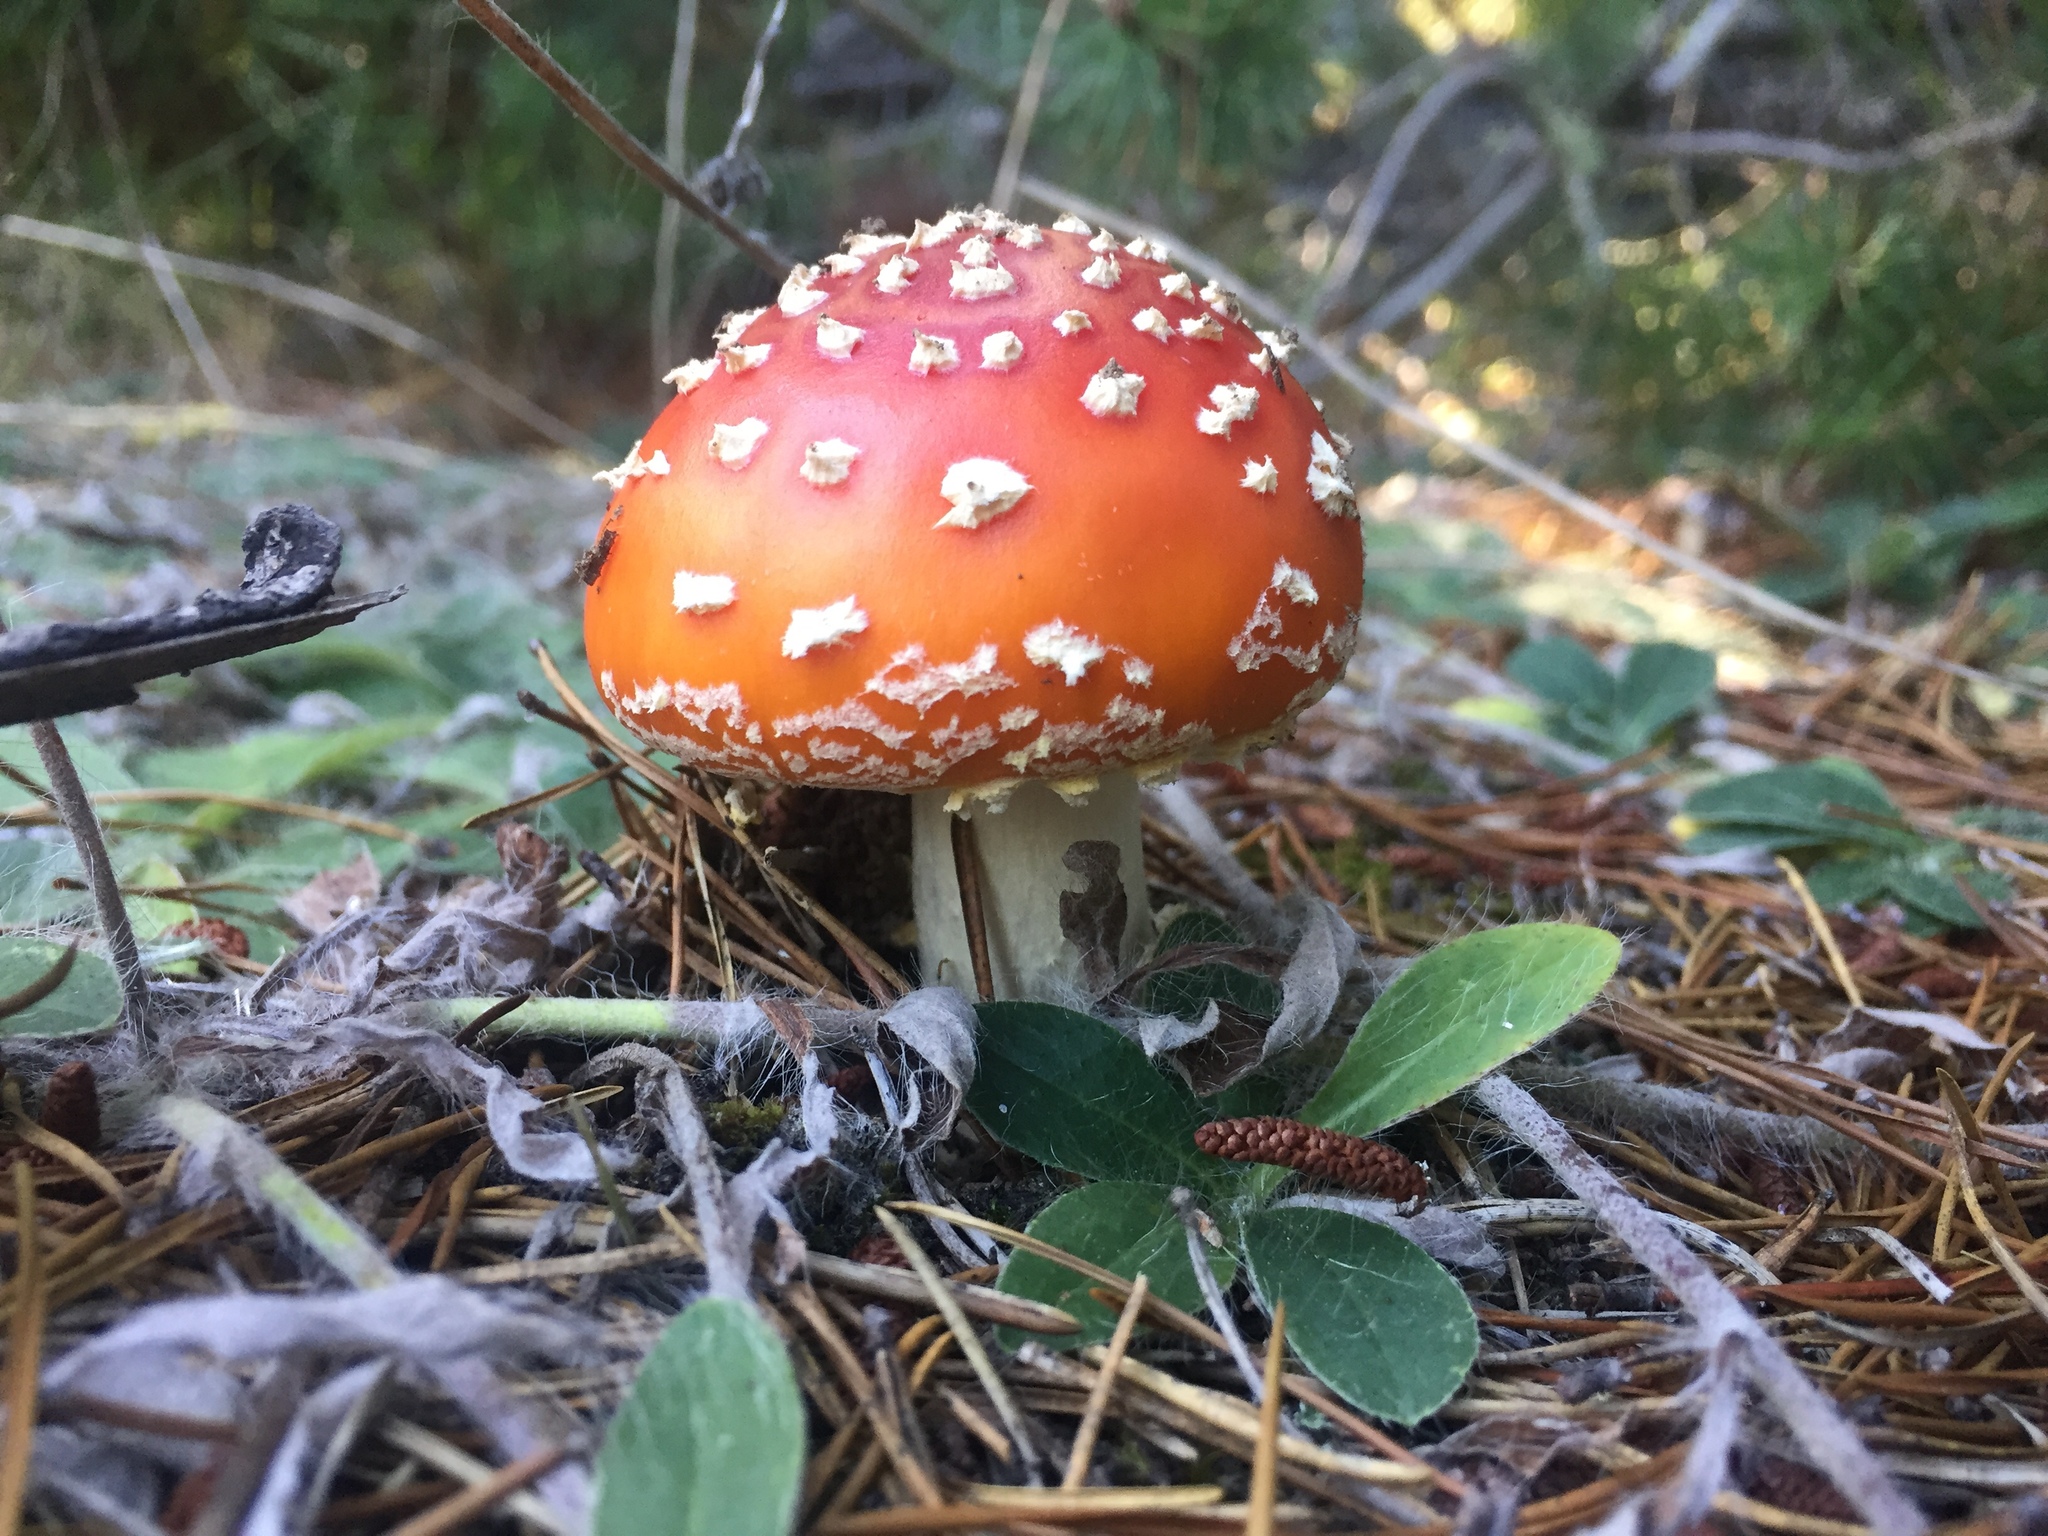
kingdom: Fungi
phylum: Basidiomycota
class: Agaricomycetes
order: Agaricales
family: Amanitaceae
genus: Amanita
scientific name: Amanita muscaria
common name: Fly agaric
